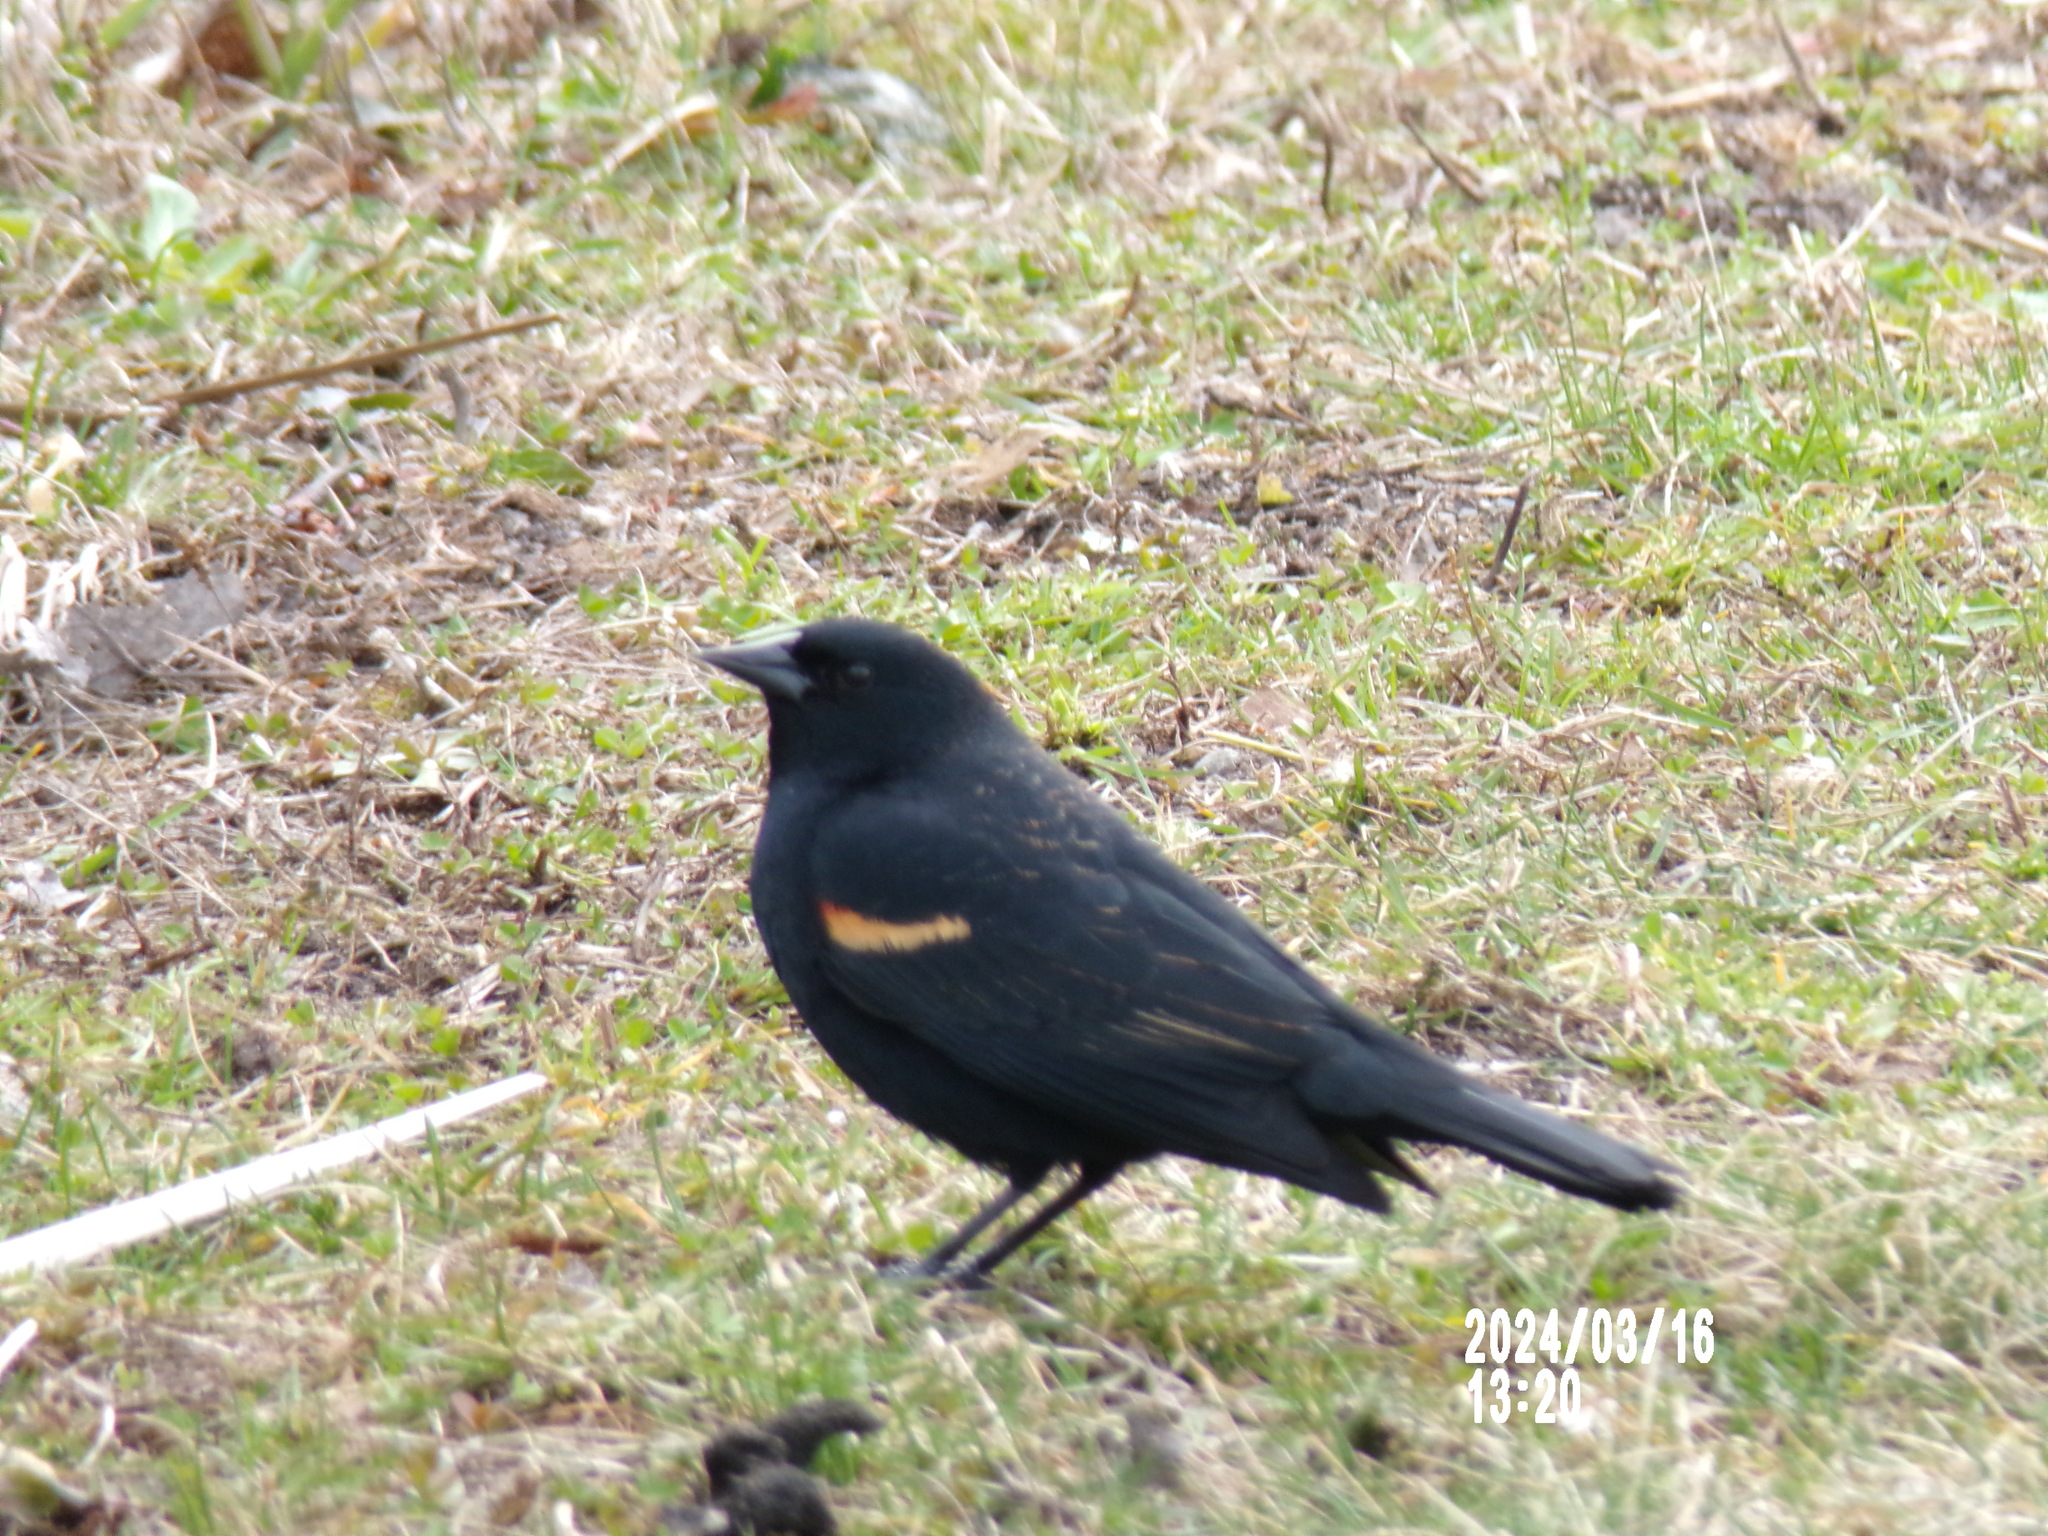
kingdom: Animalia
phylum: Chordata
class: Aves
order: Passeriformes
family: Icteridae
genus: Agelaius
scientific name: Agelaius phoeniceus
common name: Red-winged blackbird
